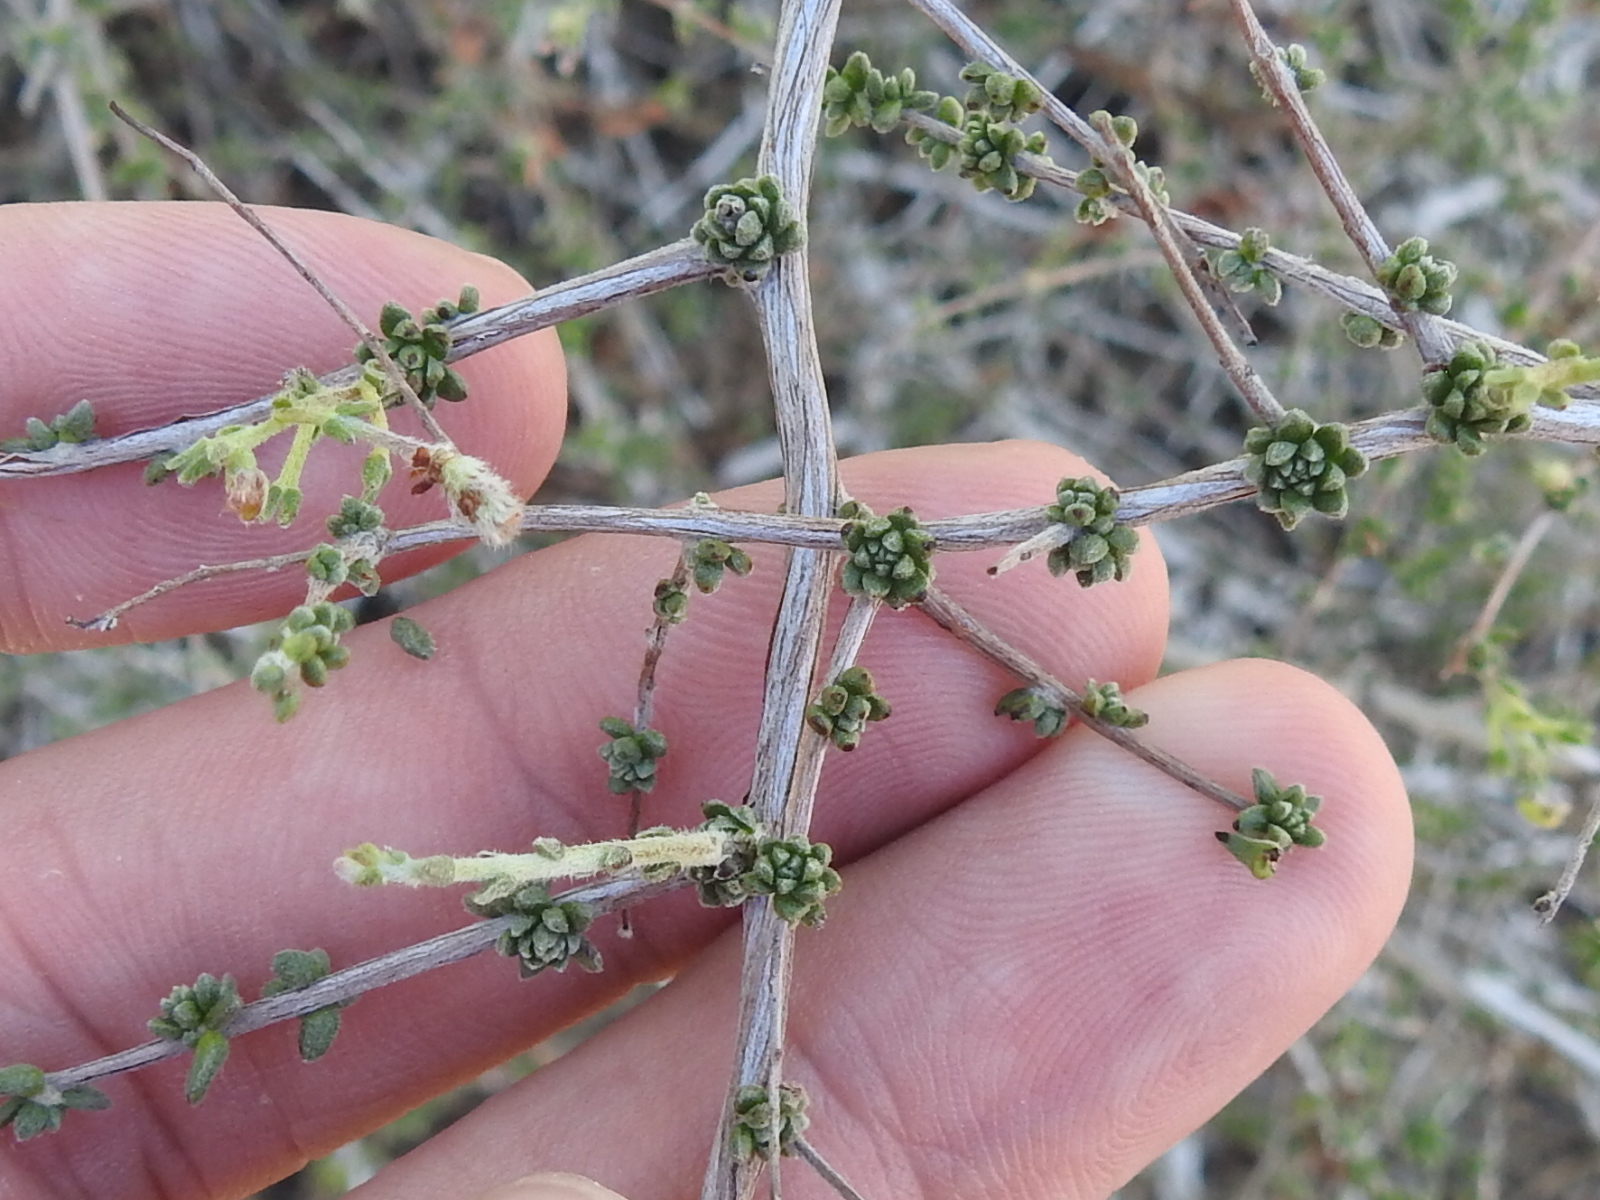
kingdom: Plantae
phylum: Tracheophyta
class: Magnoliopsida
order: Zygophyllales
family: Krameriaceae
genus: Krameria
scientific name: Krameria ramosissima
